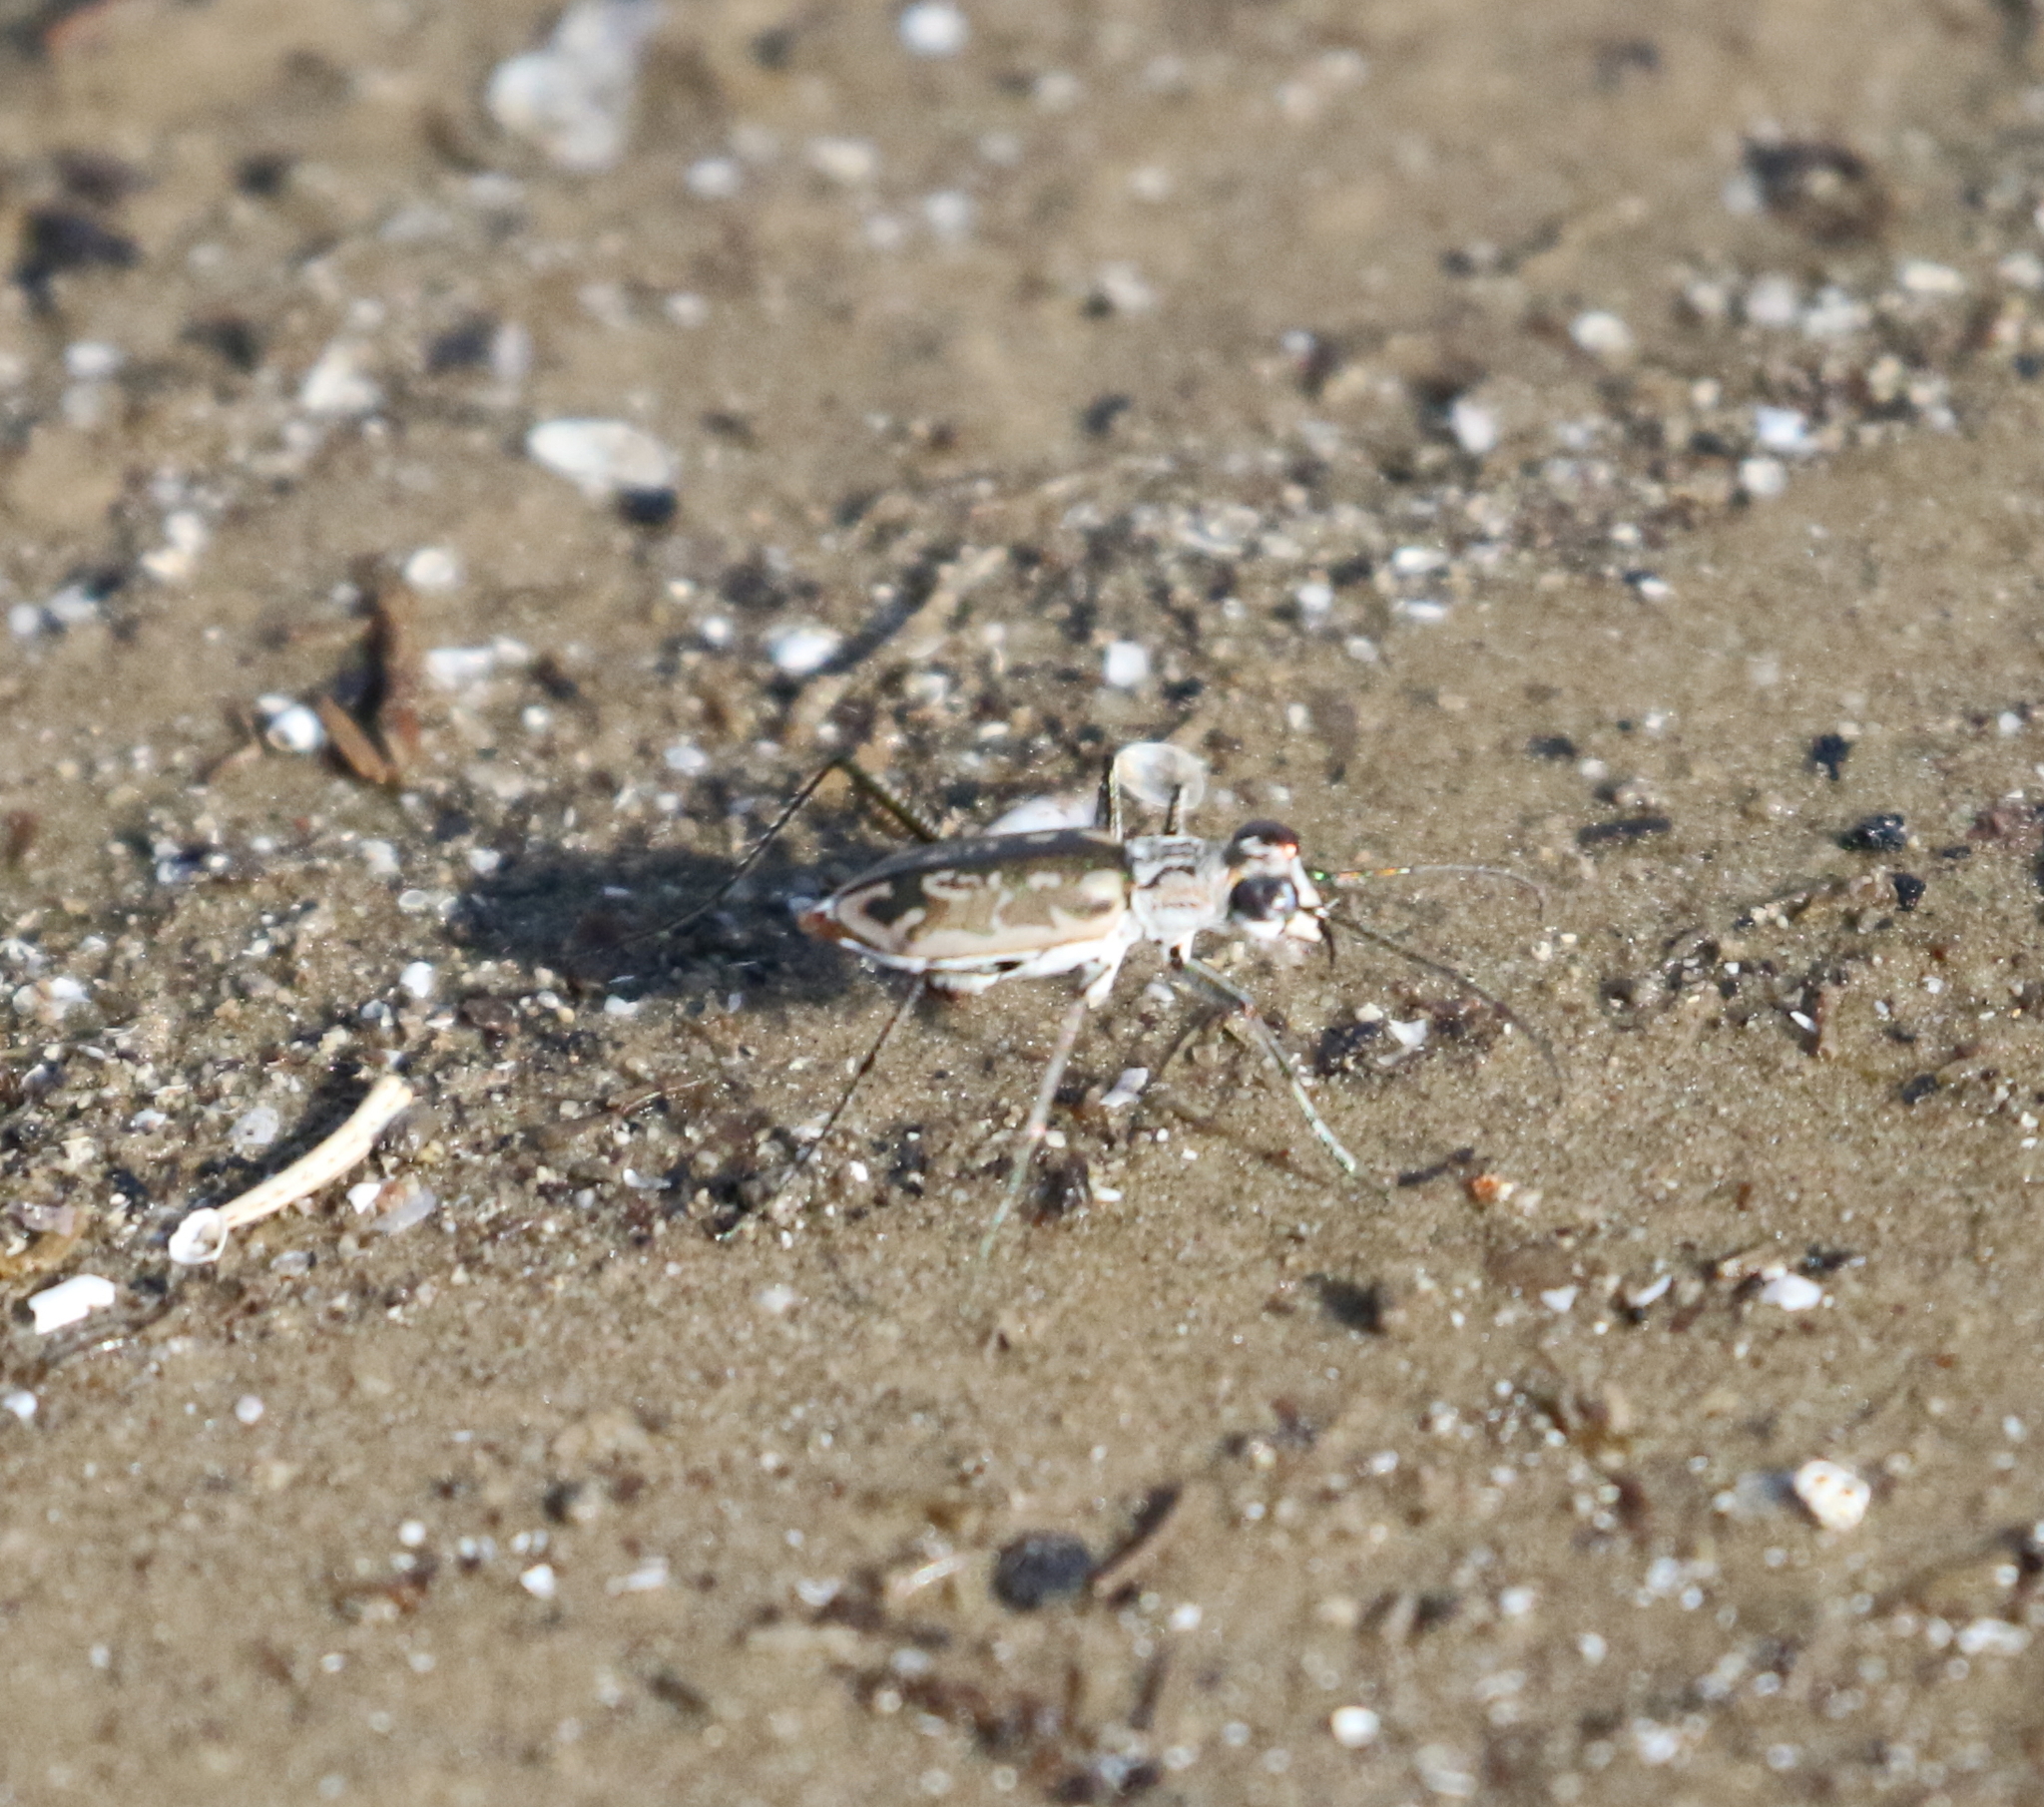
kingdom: Animalia
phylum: Arthropoda
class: Insecta
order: Coleoptera
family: Carabidae
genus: Ellipsoptera
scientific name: Ellipsoptera hamata
